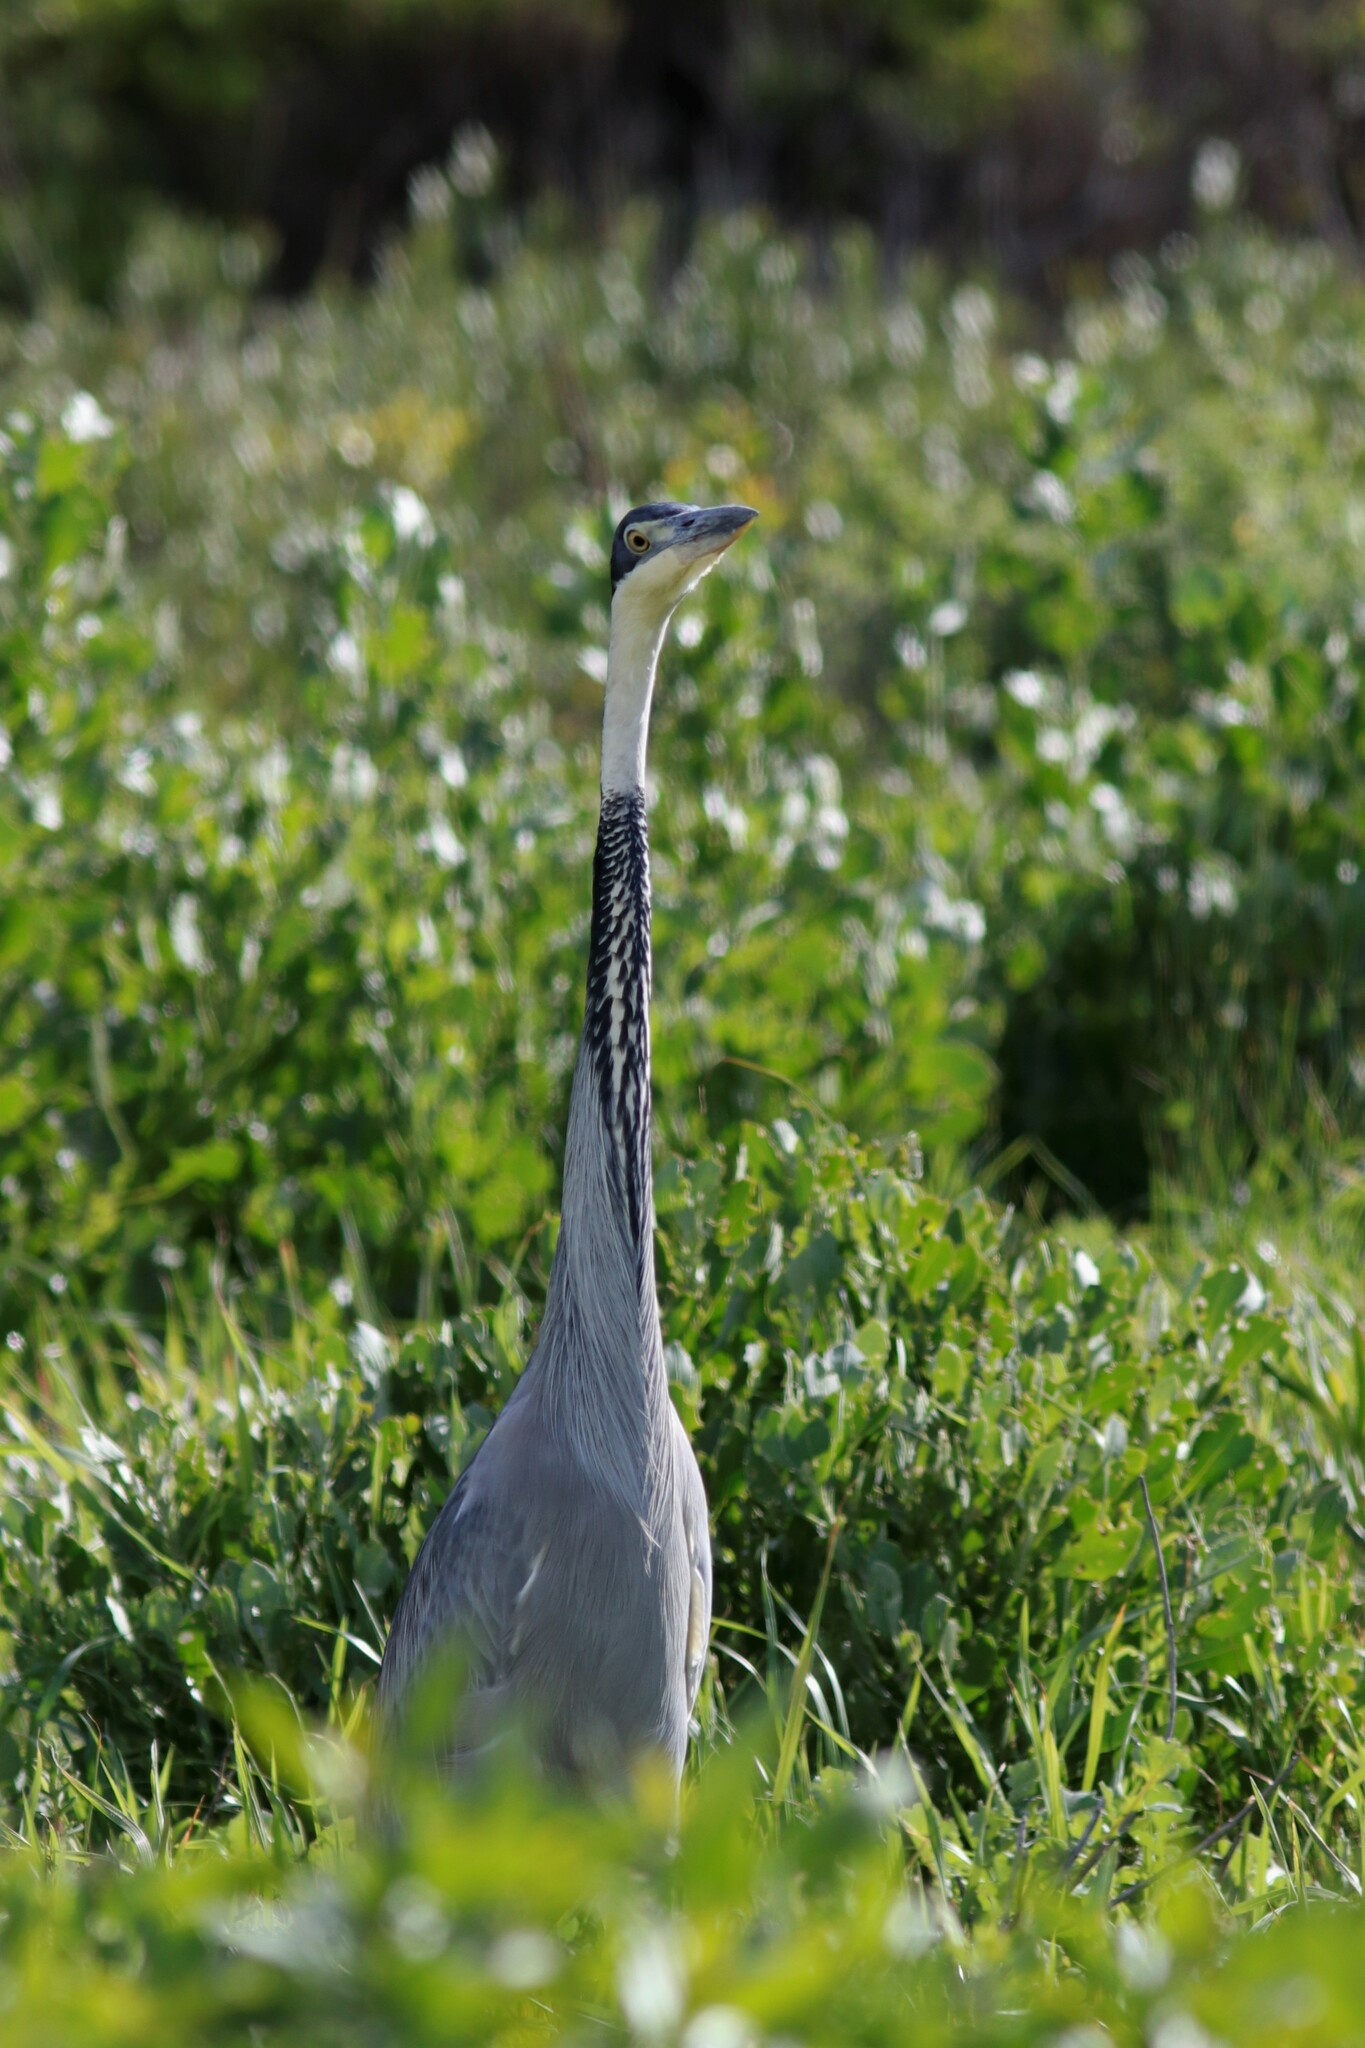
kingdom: Animalia
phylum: Chordata
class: Aves
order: Pelecaniformes
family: Ardeidae
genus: Ardea
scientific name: Ardea melanocephala
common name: Black-headed heron
